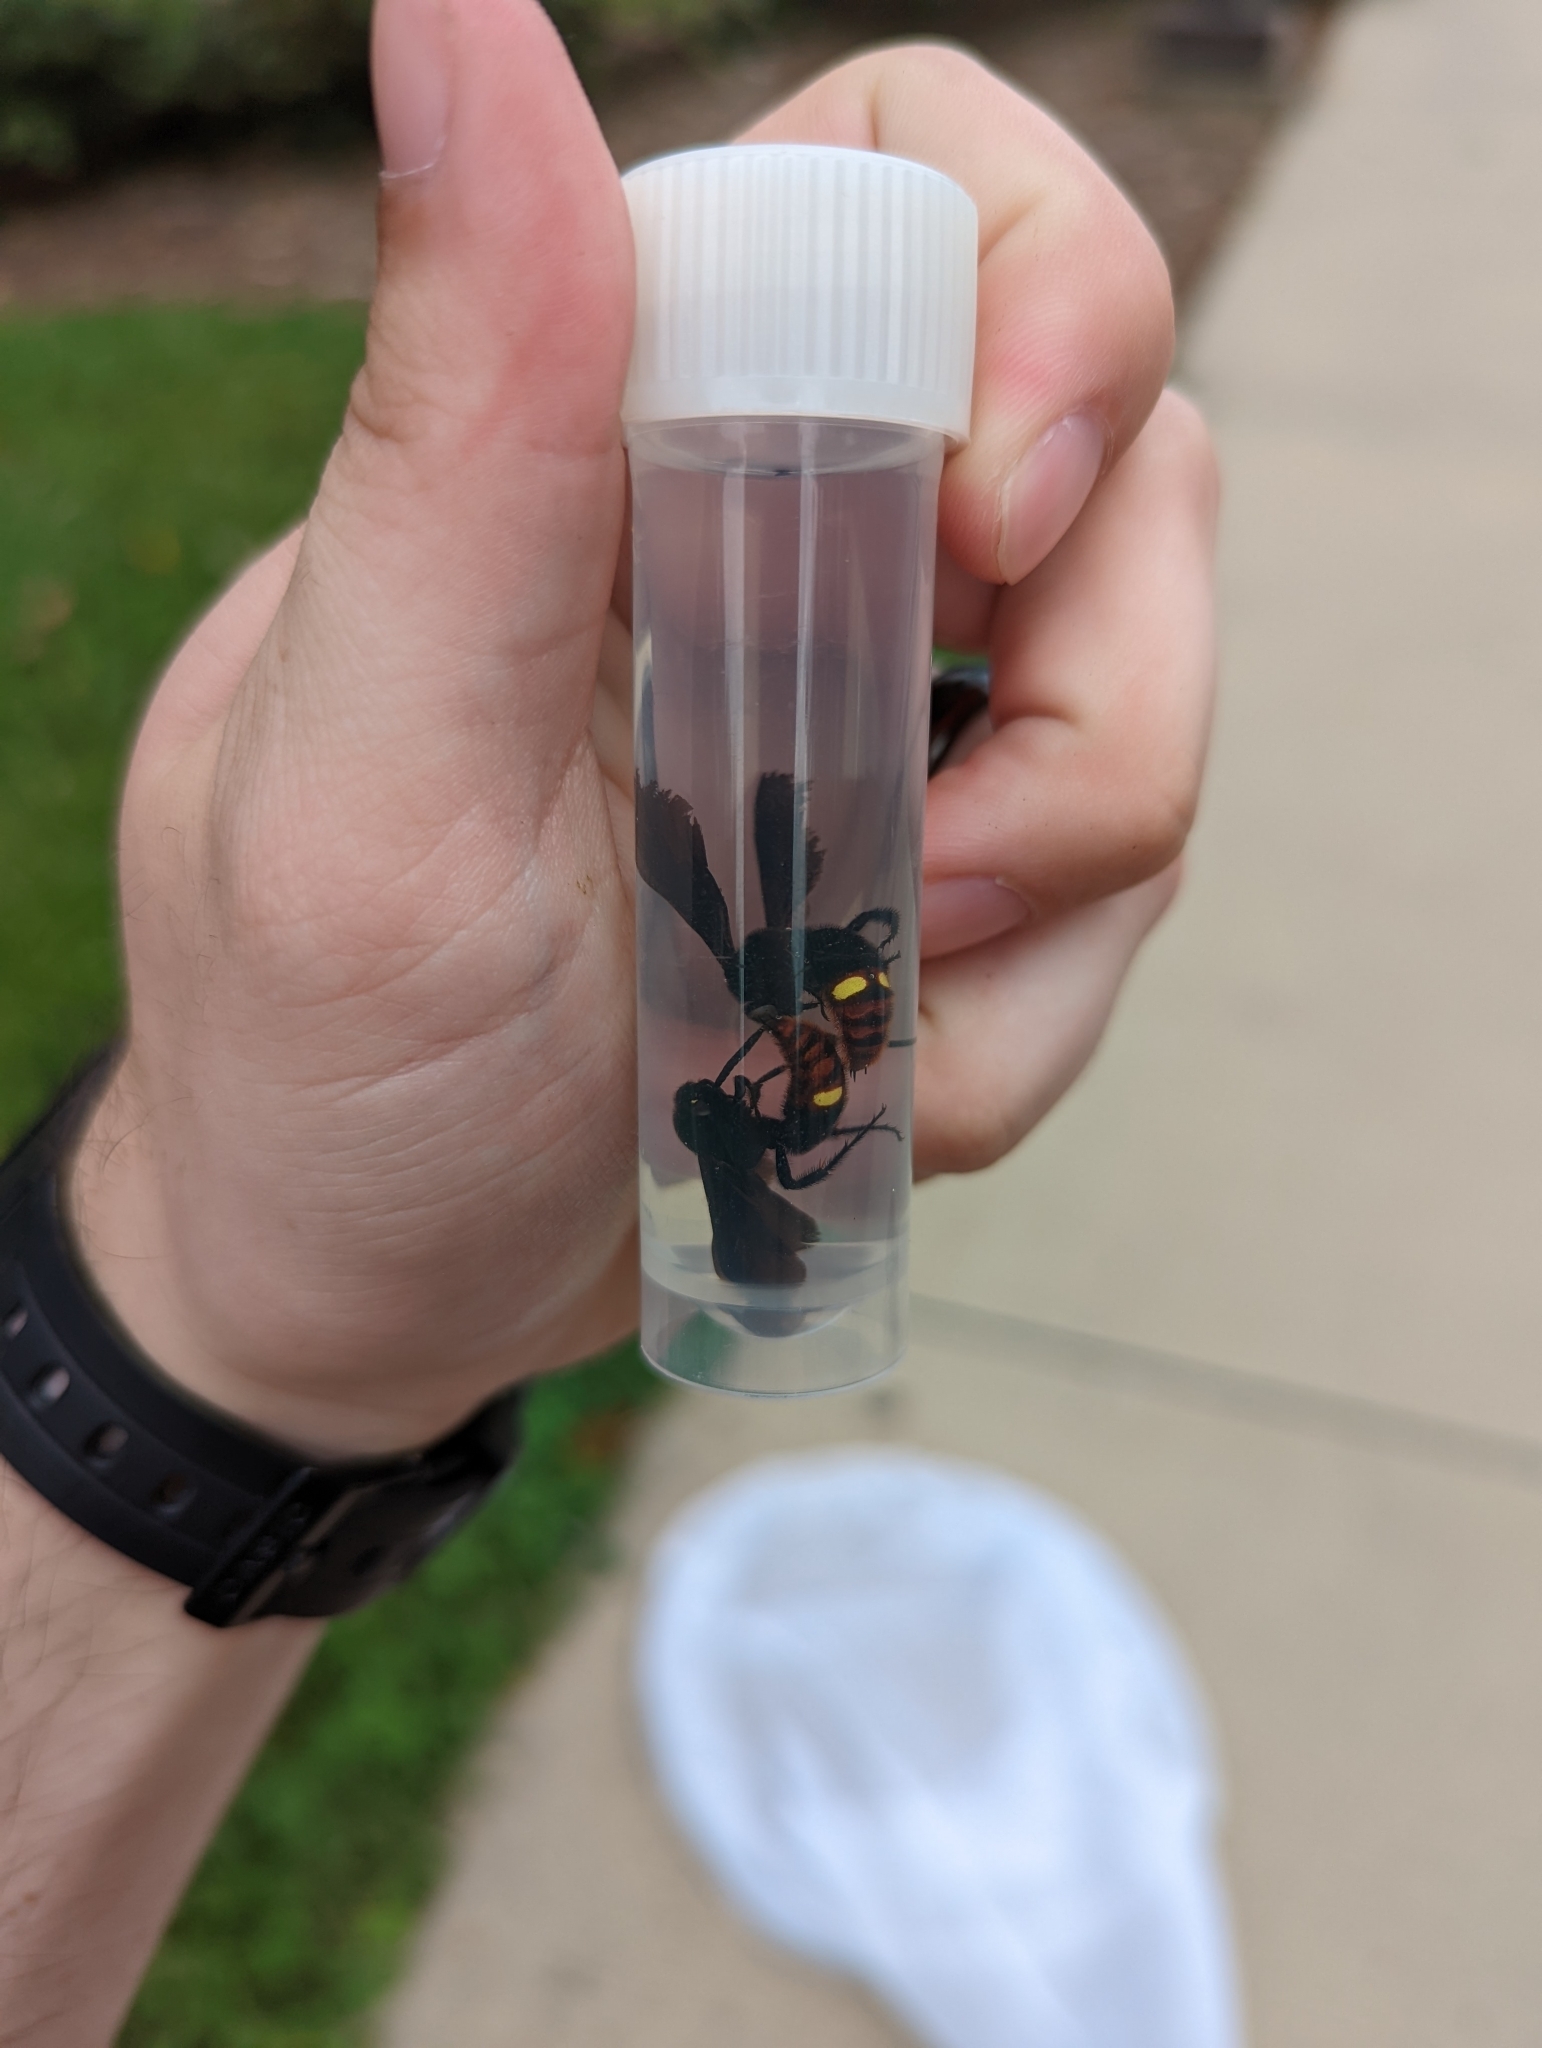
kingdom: Animalia
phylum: Arthropoda
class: Insecta
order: Hymenoptera
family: Scoliidae
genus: Scolia
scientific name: Scolia dubia
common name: Blue-winged scoliid wasp
